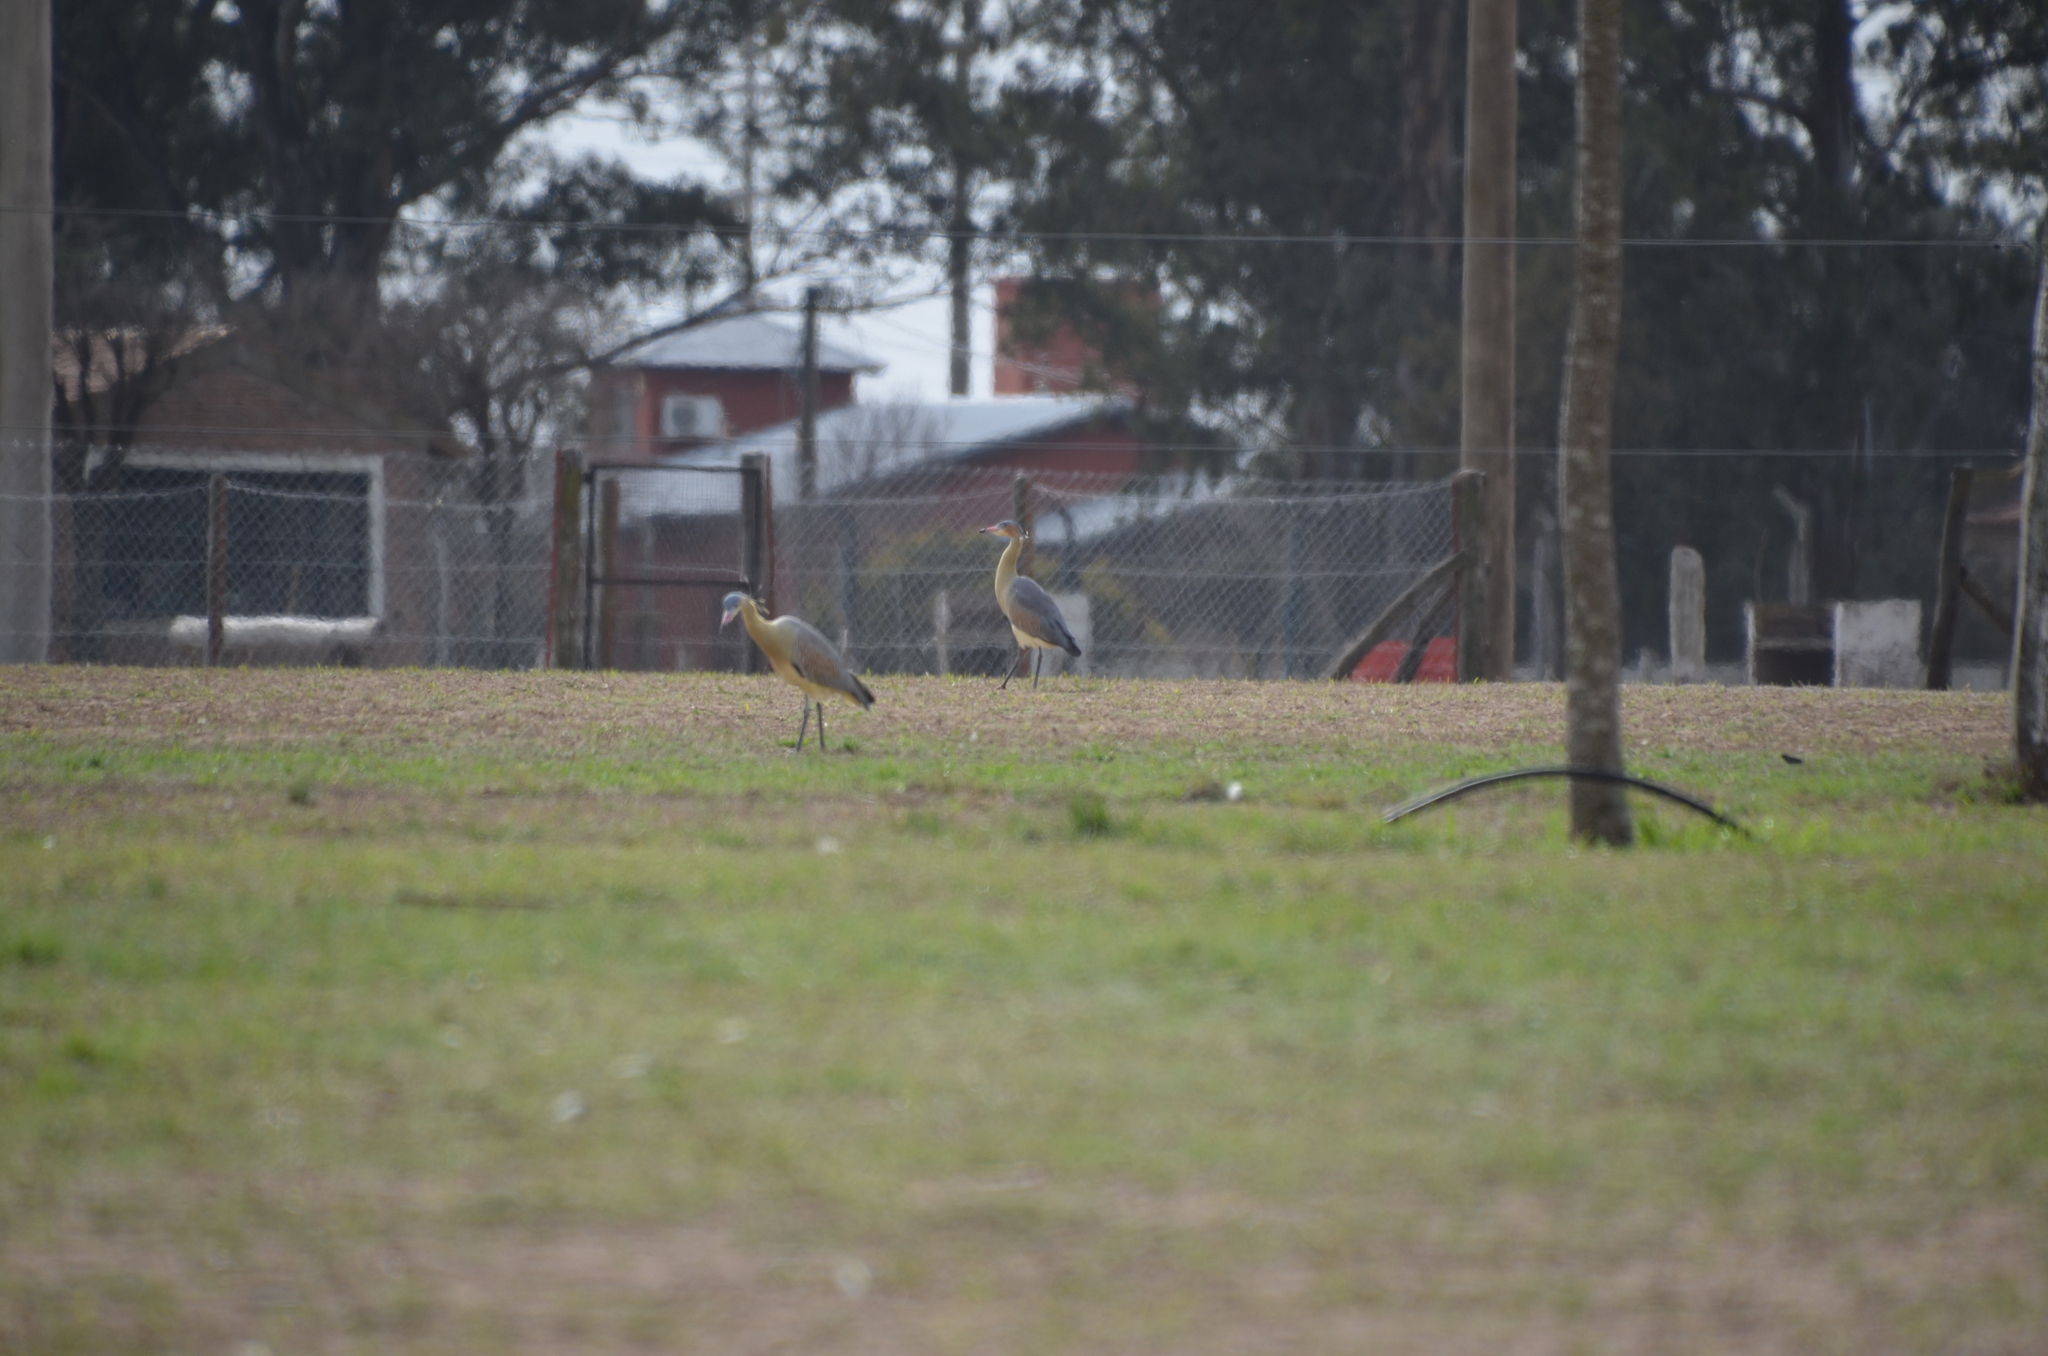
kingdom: Animalia
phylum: Chordata
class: Aves
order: Pelecaniformes
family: Ardeidae
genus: Syrigma
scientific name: Syrigma sibilatrix
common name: Whistling heron
